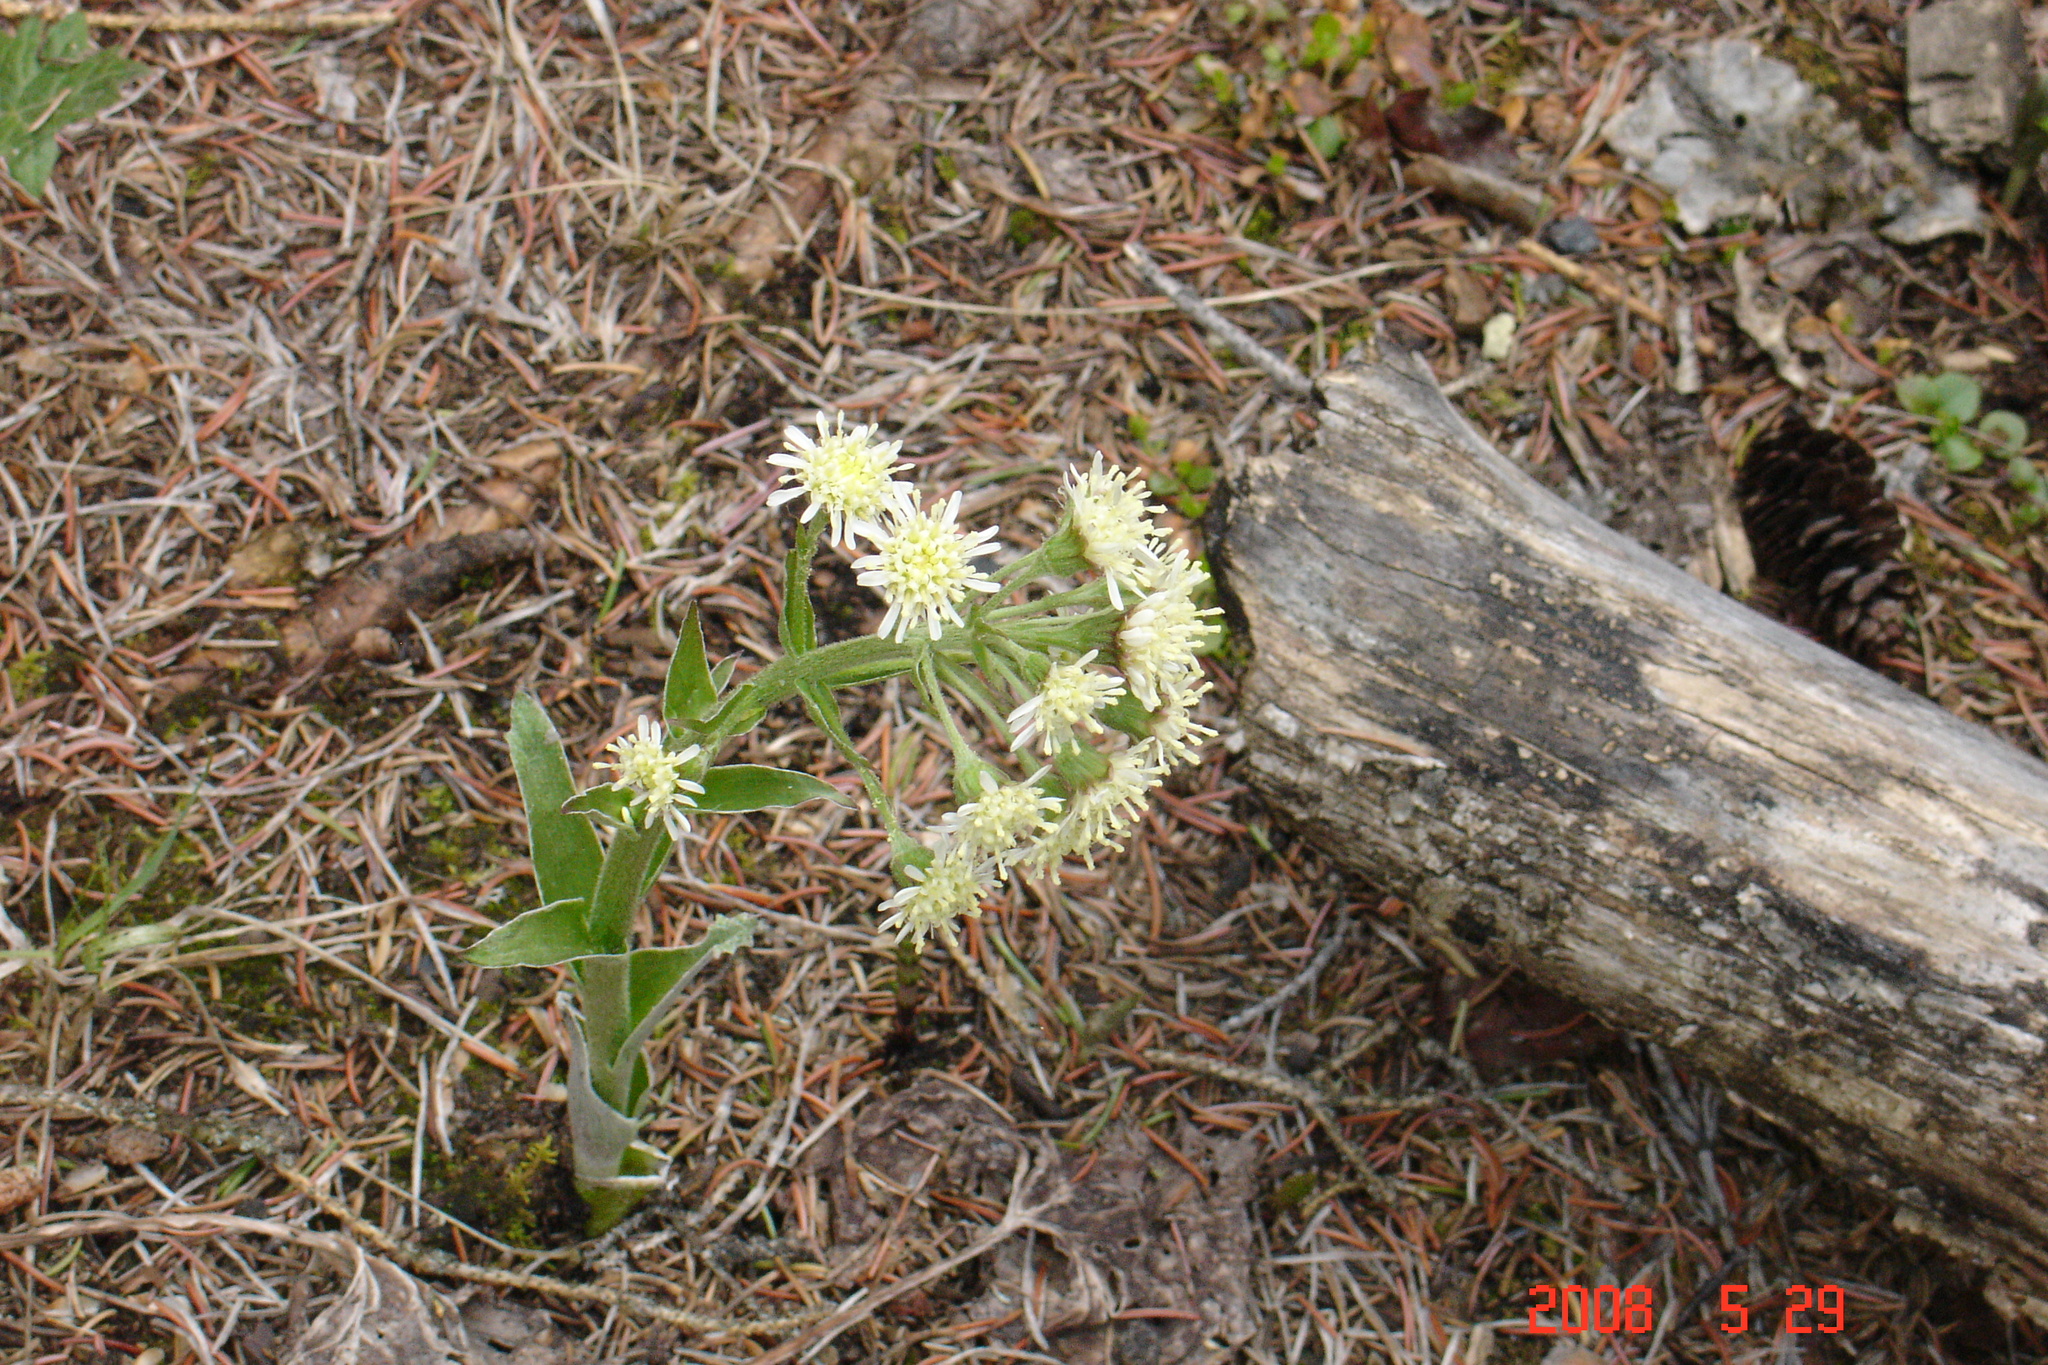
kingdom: Plantae
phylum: Tracheophyta
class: Magnoliopsida
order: Asterales
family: Asteraceae
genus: Petasites
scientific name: Petasites frigidus
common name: Arctic butterbur
